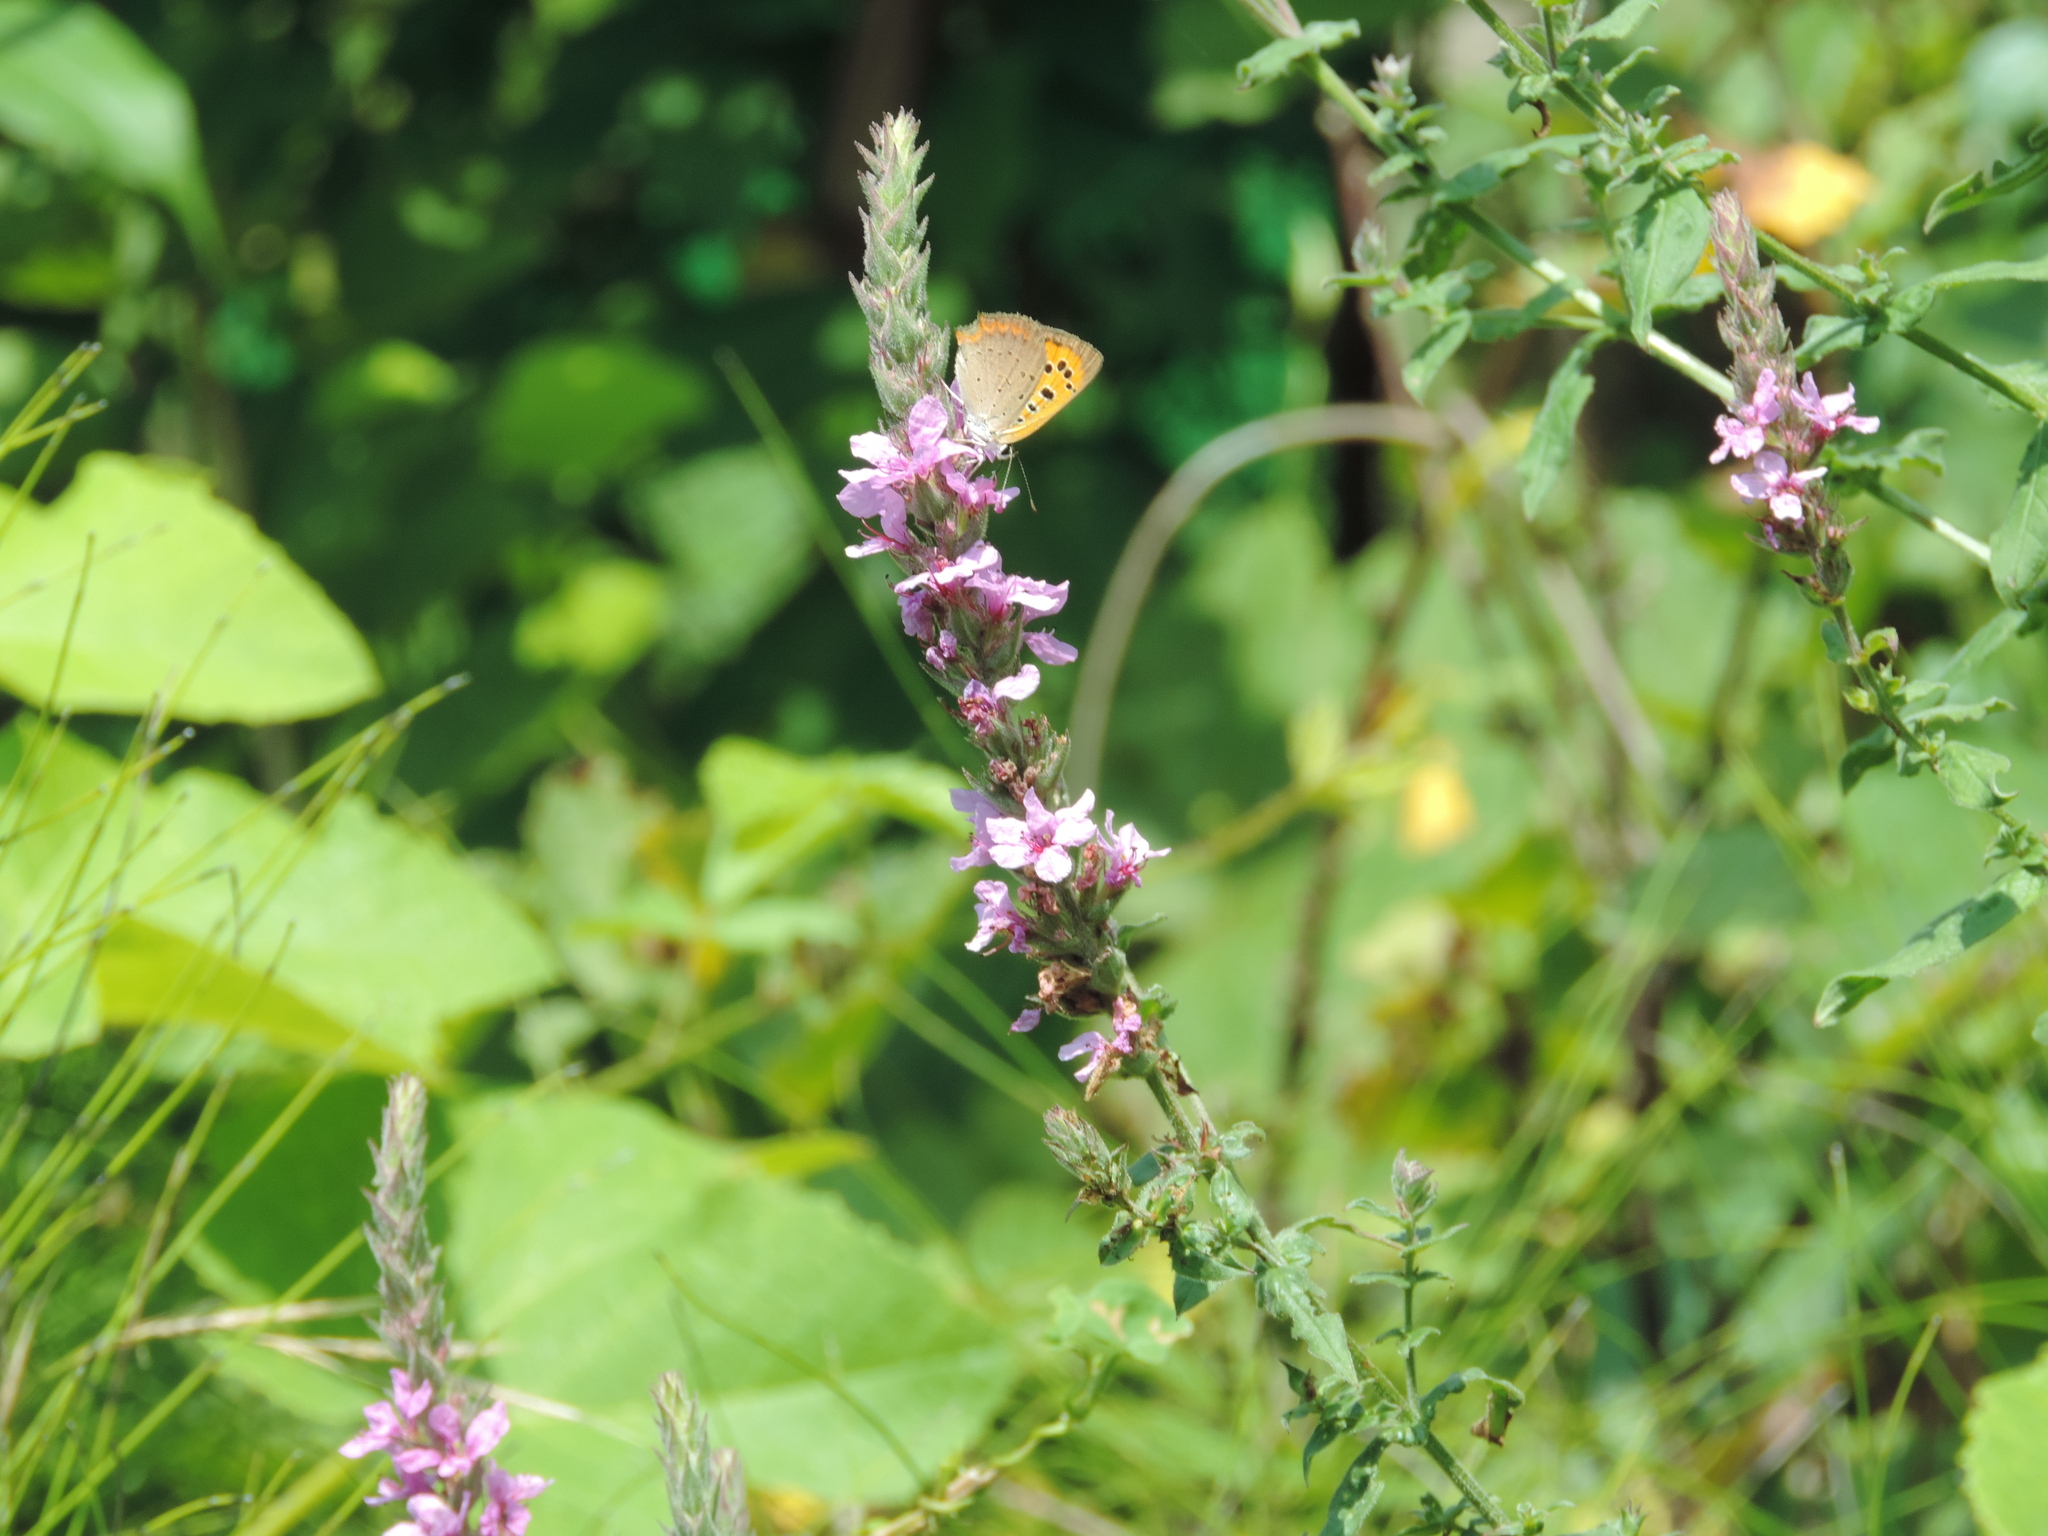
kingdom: Animalia
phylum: Arthropoda
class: Insecta
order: Lepidoptera
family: Lycaenidae
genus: Lycaena
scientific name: Lycaena phlaeas
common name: Small copper
